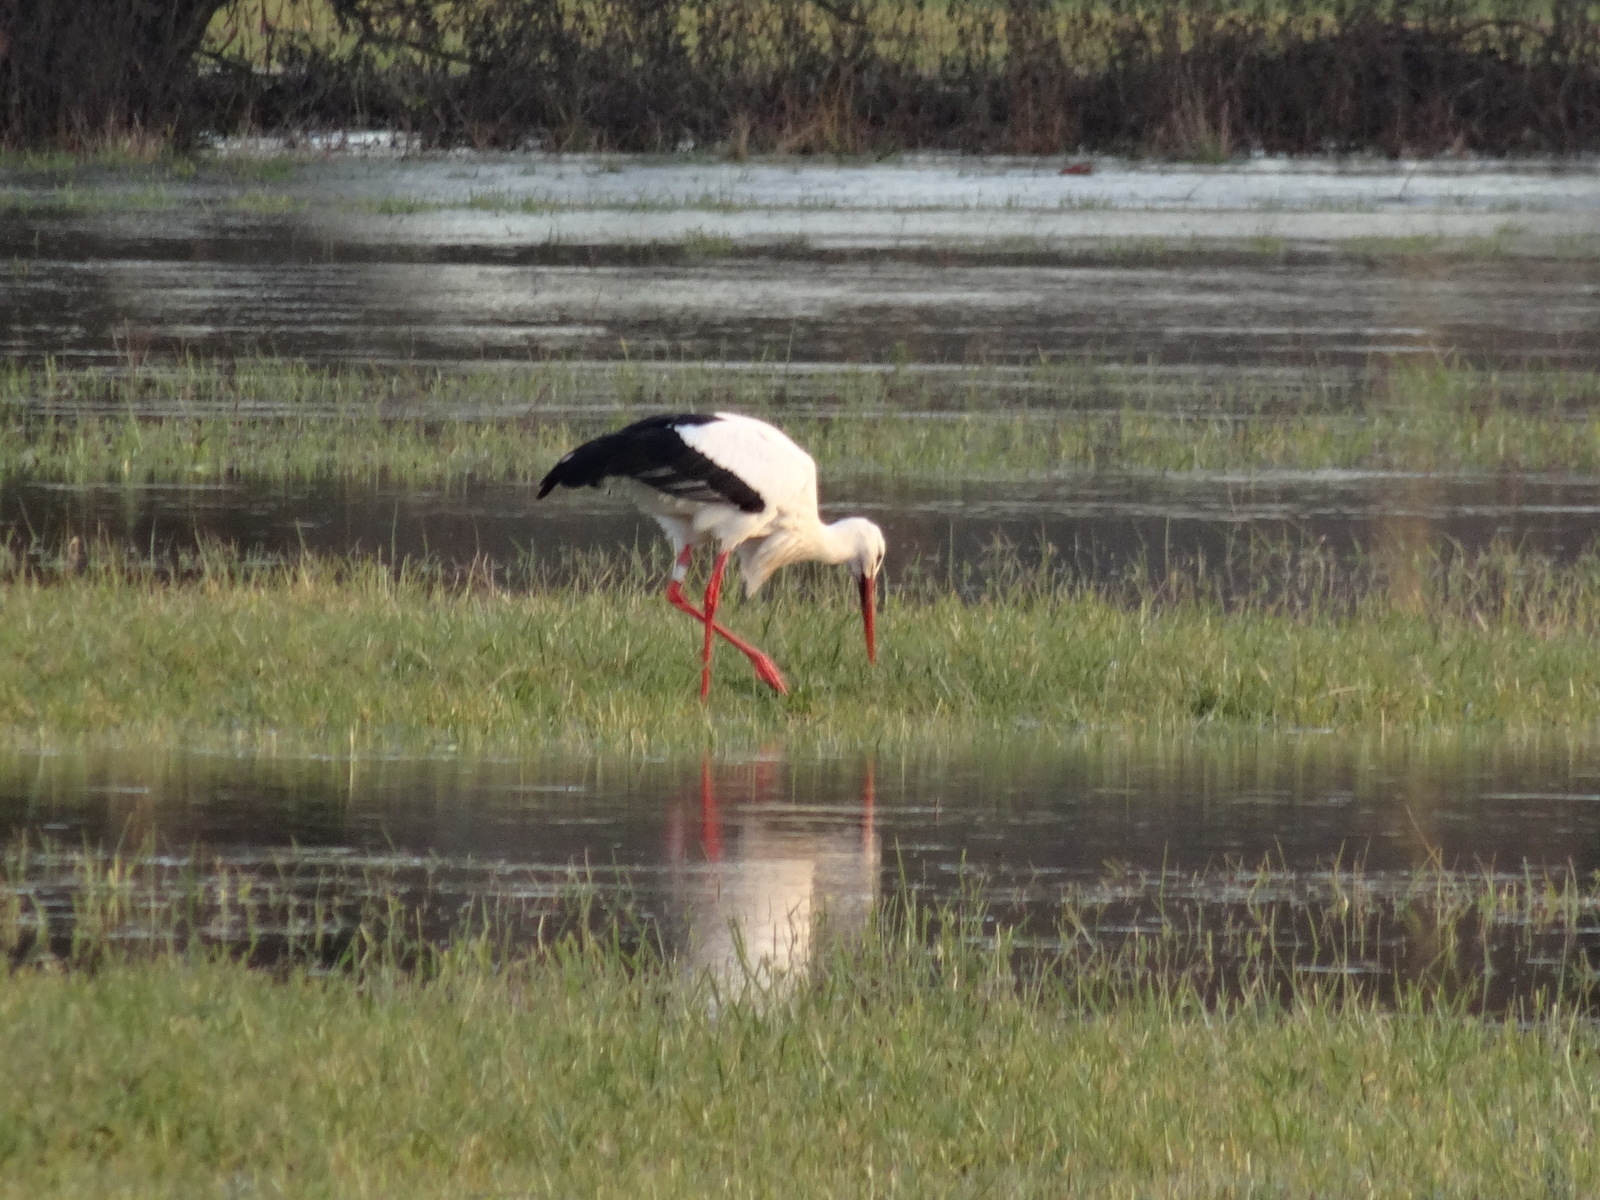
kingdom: Animalia
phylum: Chordata
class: Aves
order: Ciconiiformes
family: Ciconiidae
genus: Ciconia
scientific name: Ciconia ciconia
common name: White stork
